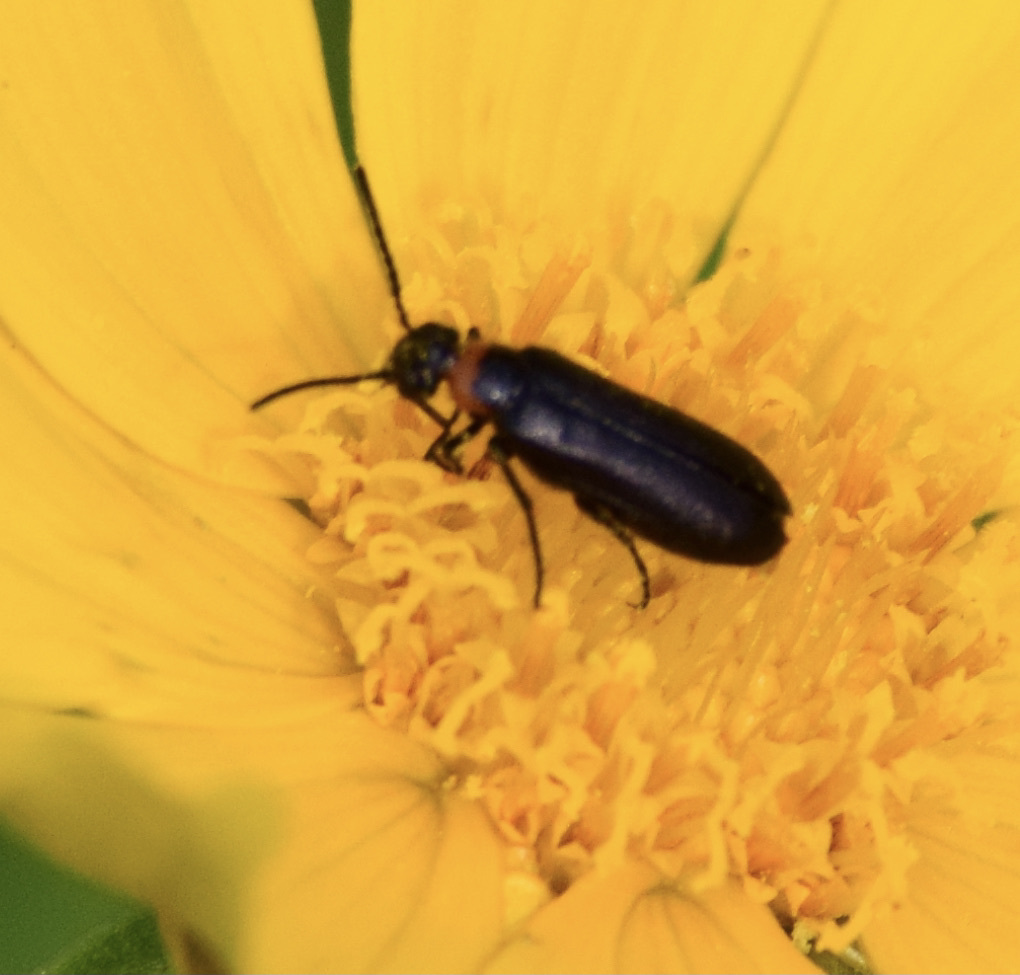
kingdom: Animalia
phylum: Arthropoda
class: Insecta
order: Coleoptera
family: Meloidae
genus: Nemognatha
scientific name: Nemognatha nemorensis
